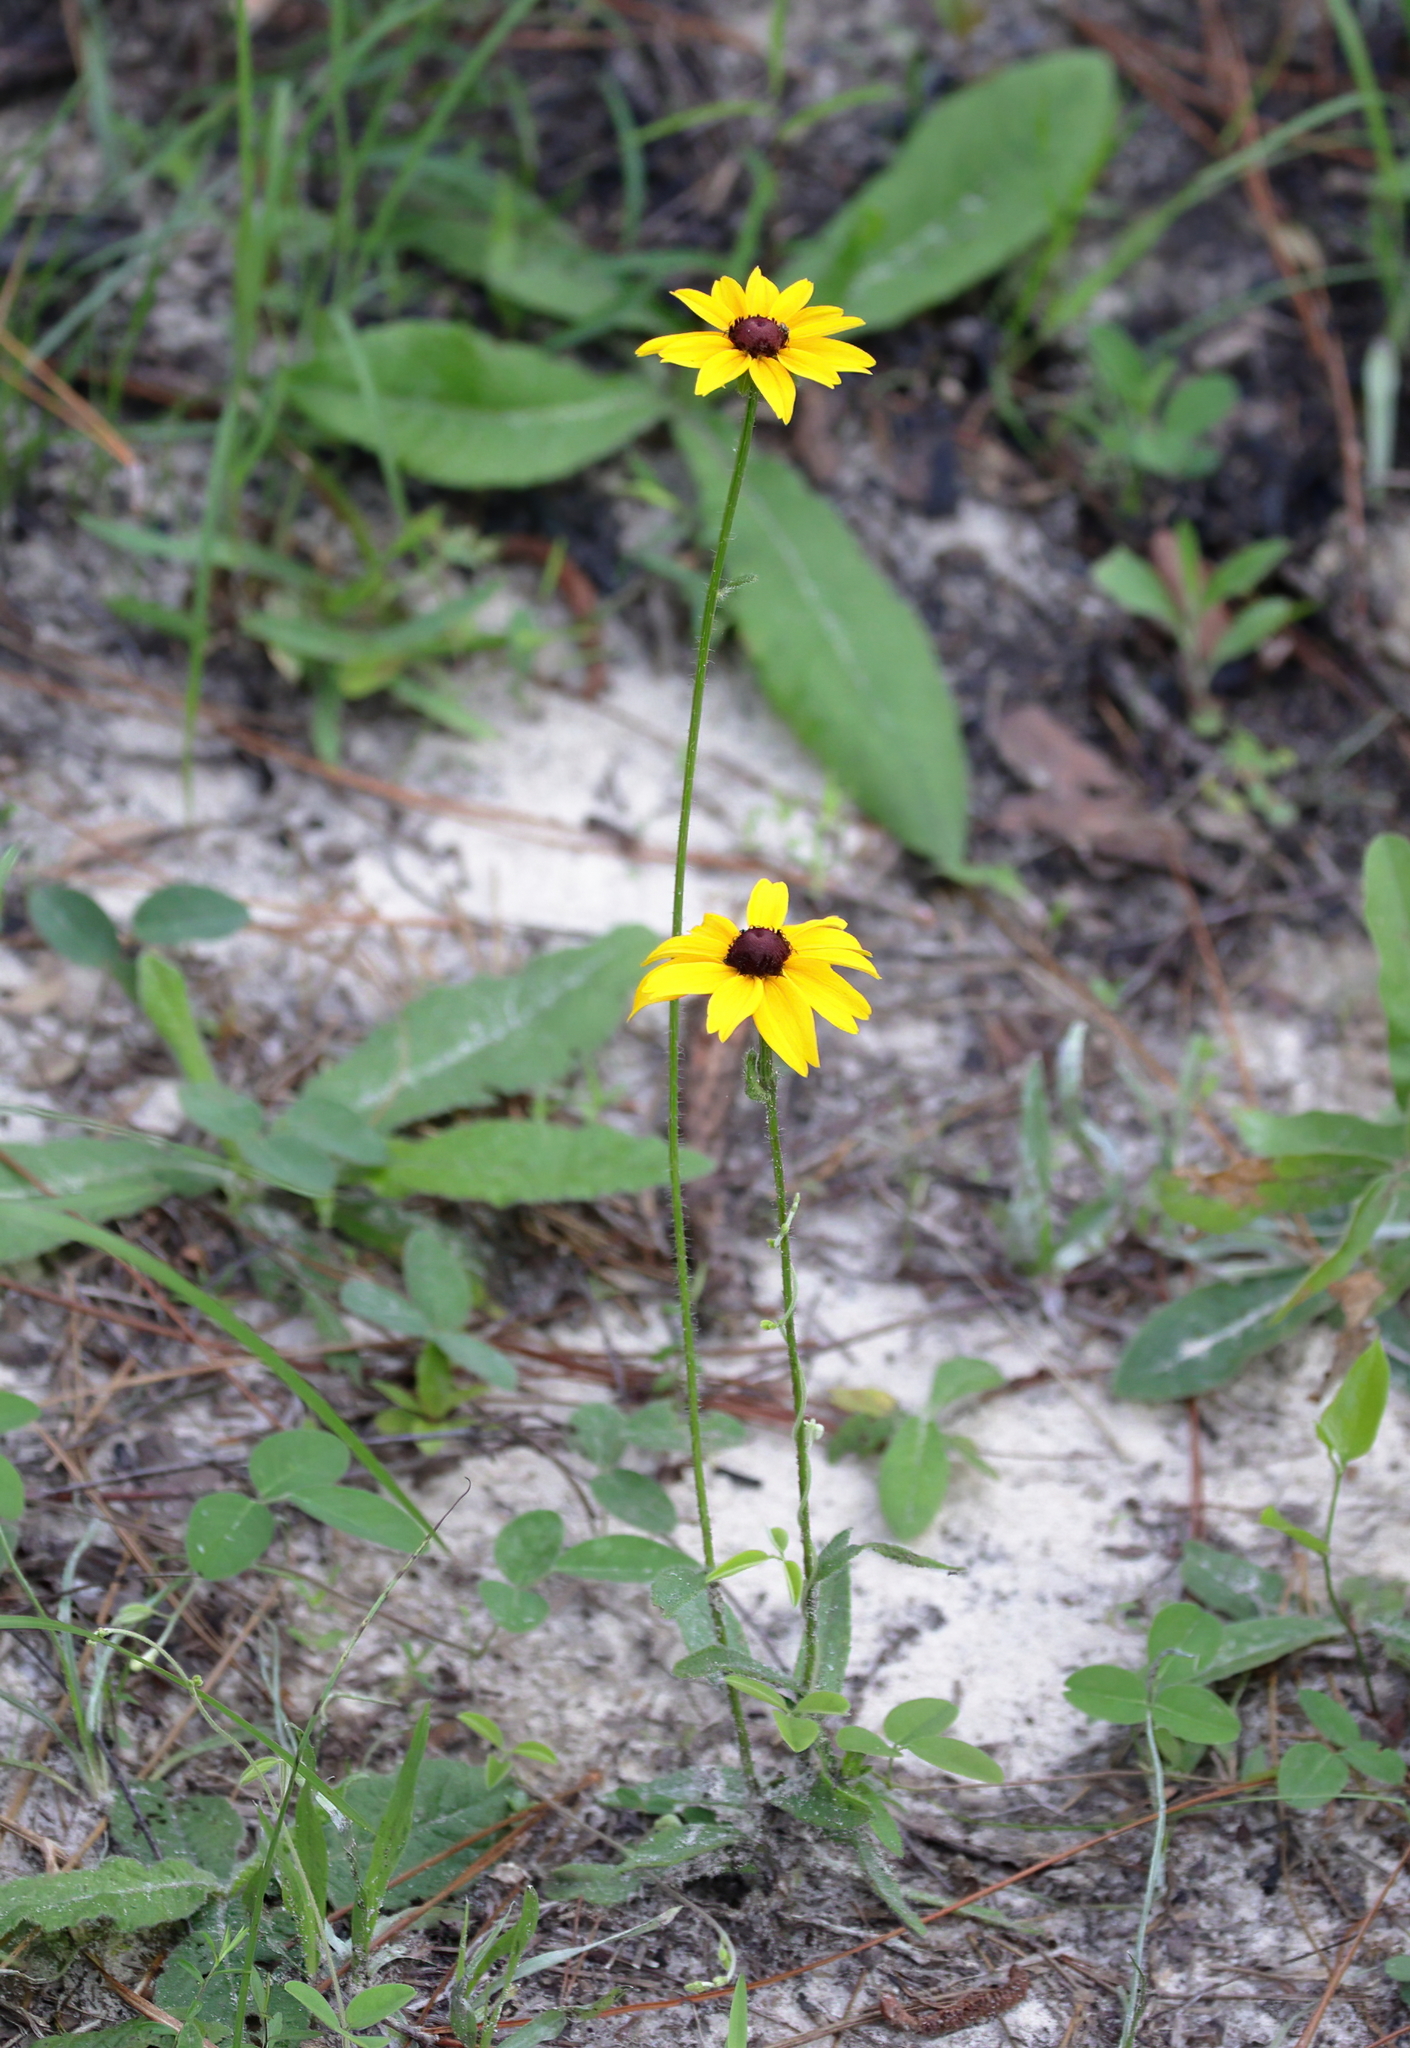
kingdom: Plantae
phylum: Tracheophyta
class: Magnoliopsida
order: Asterales
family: Asteraceae
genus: Rudbeckia
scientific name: Rudbeckia hirta
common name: Black-eyed-susan
